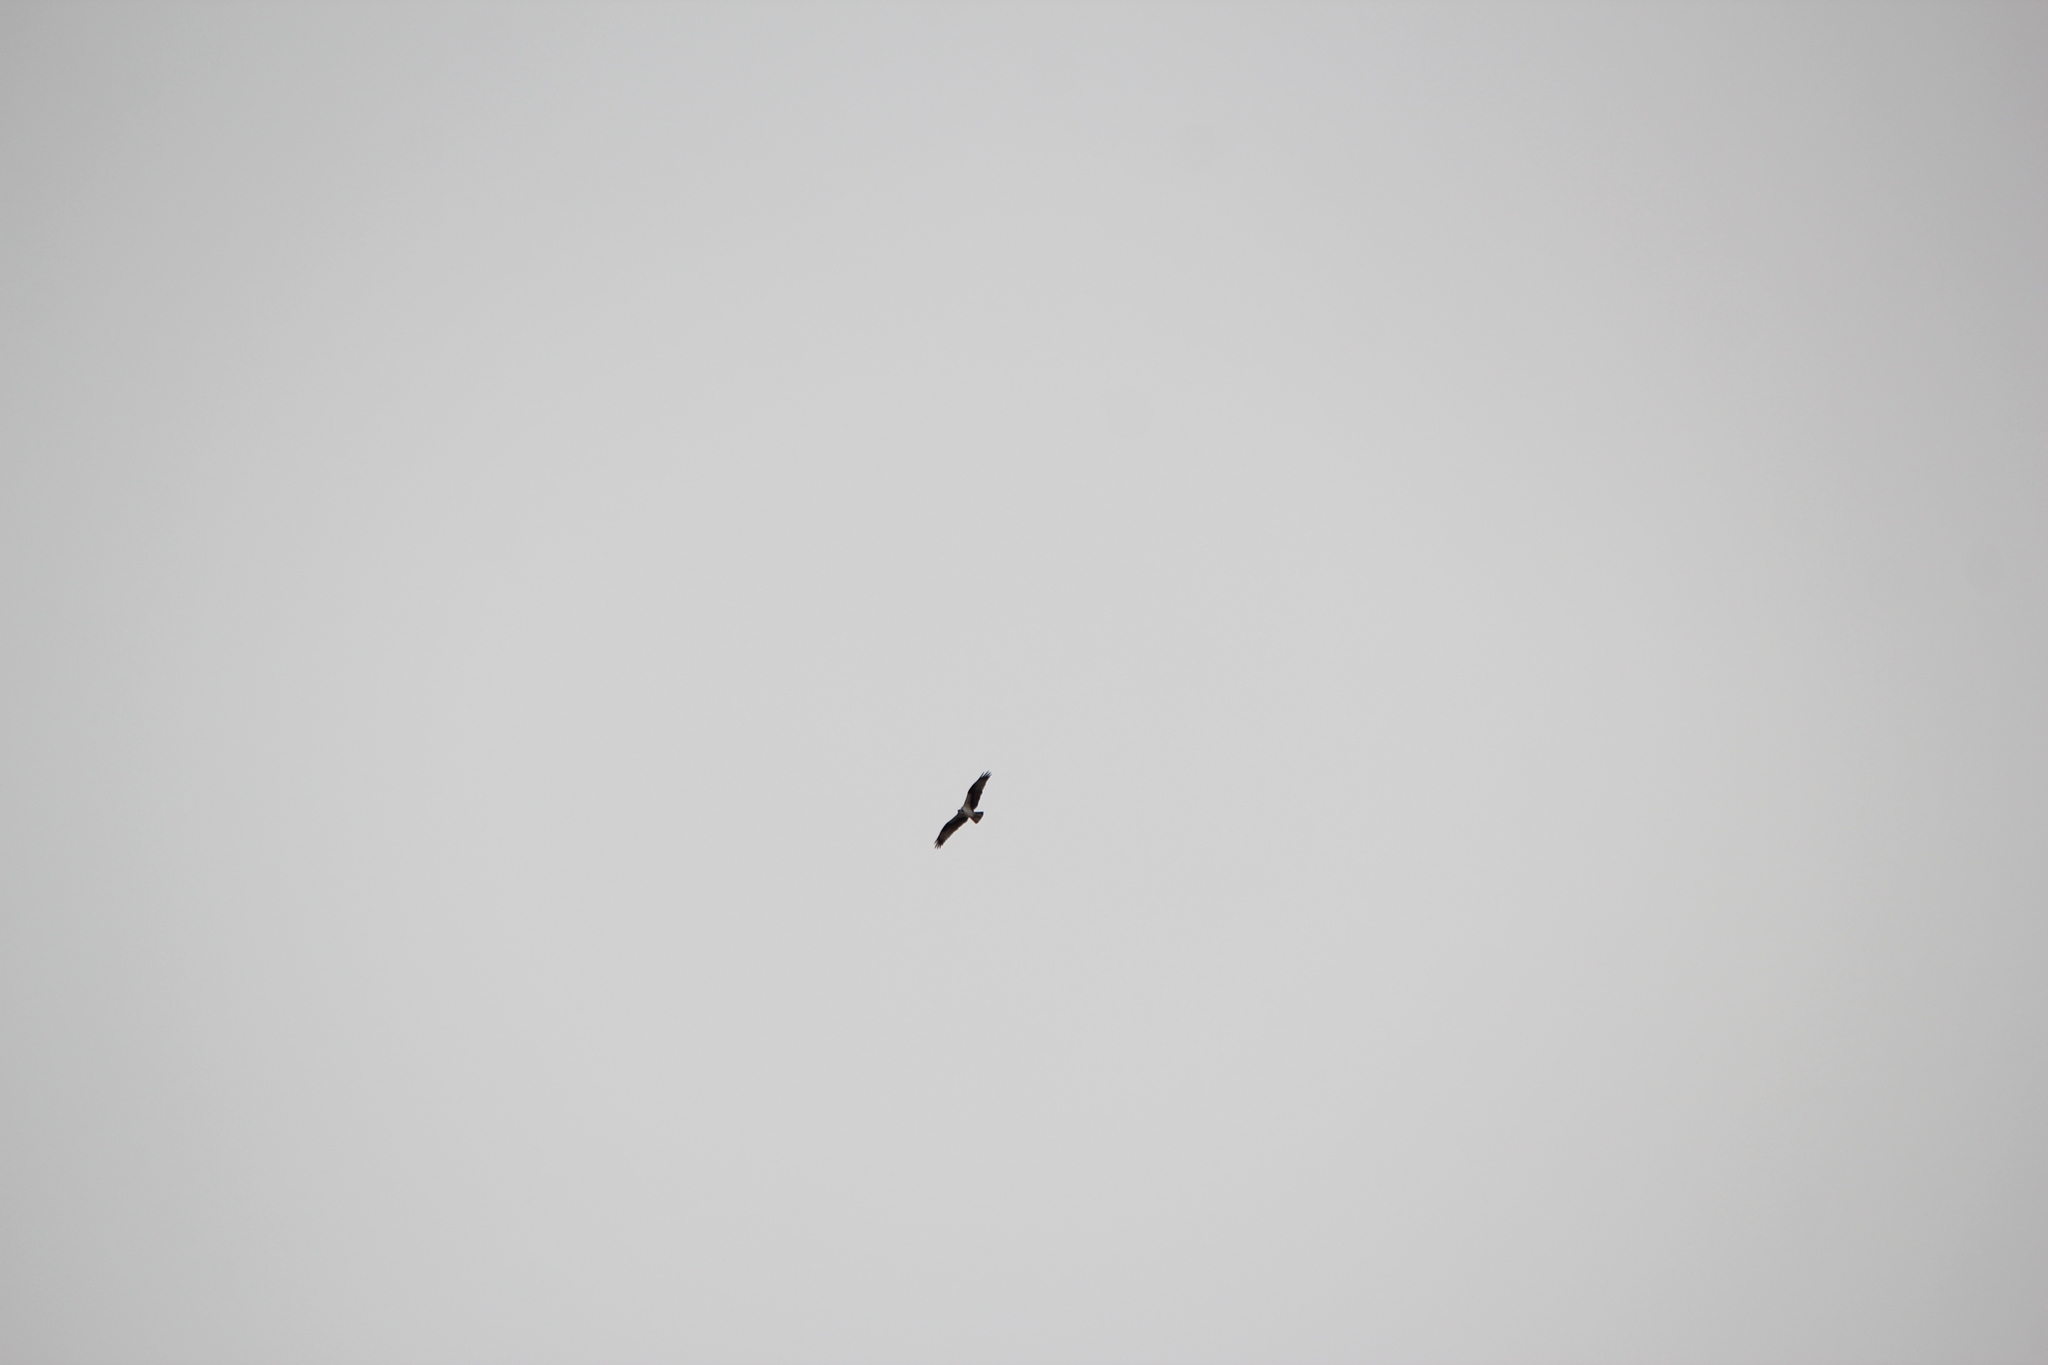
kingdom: Animalia
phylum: Chordata
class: Aves
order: Accipitriformes
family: Pandionidae
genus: Pandion
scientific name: Pandion haliaetus
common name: Osprey
